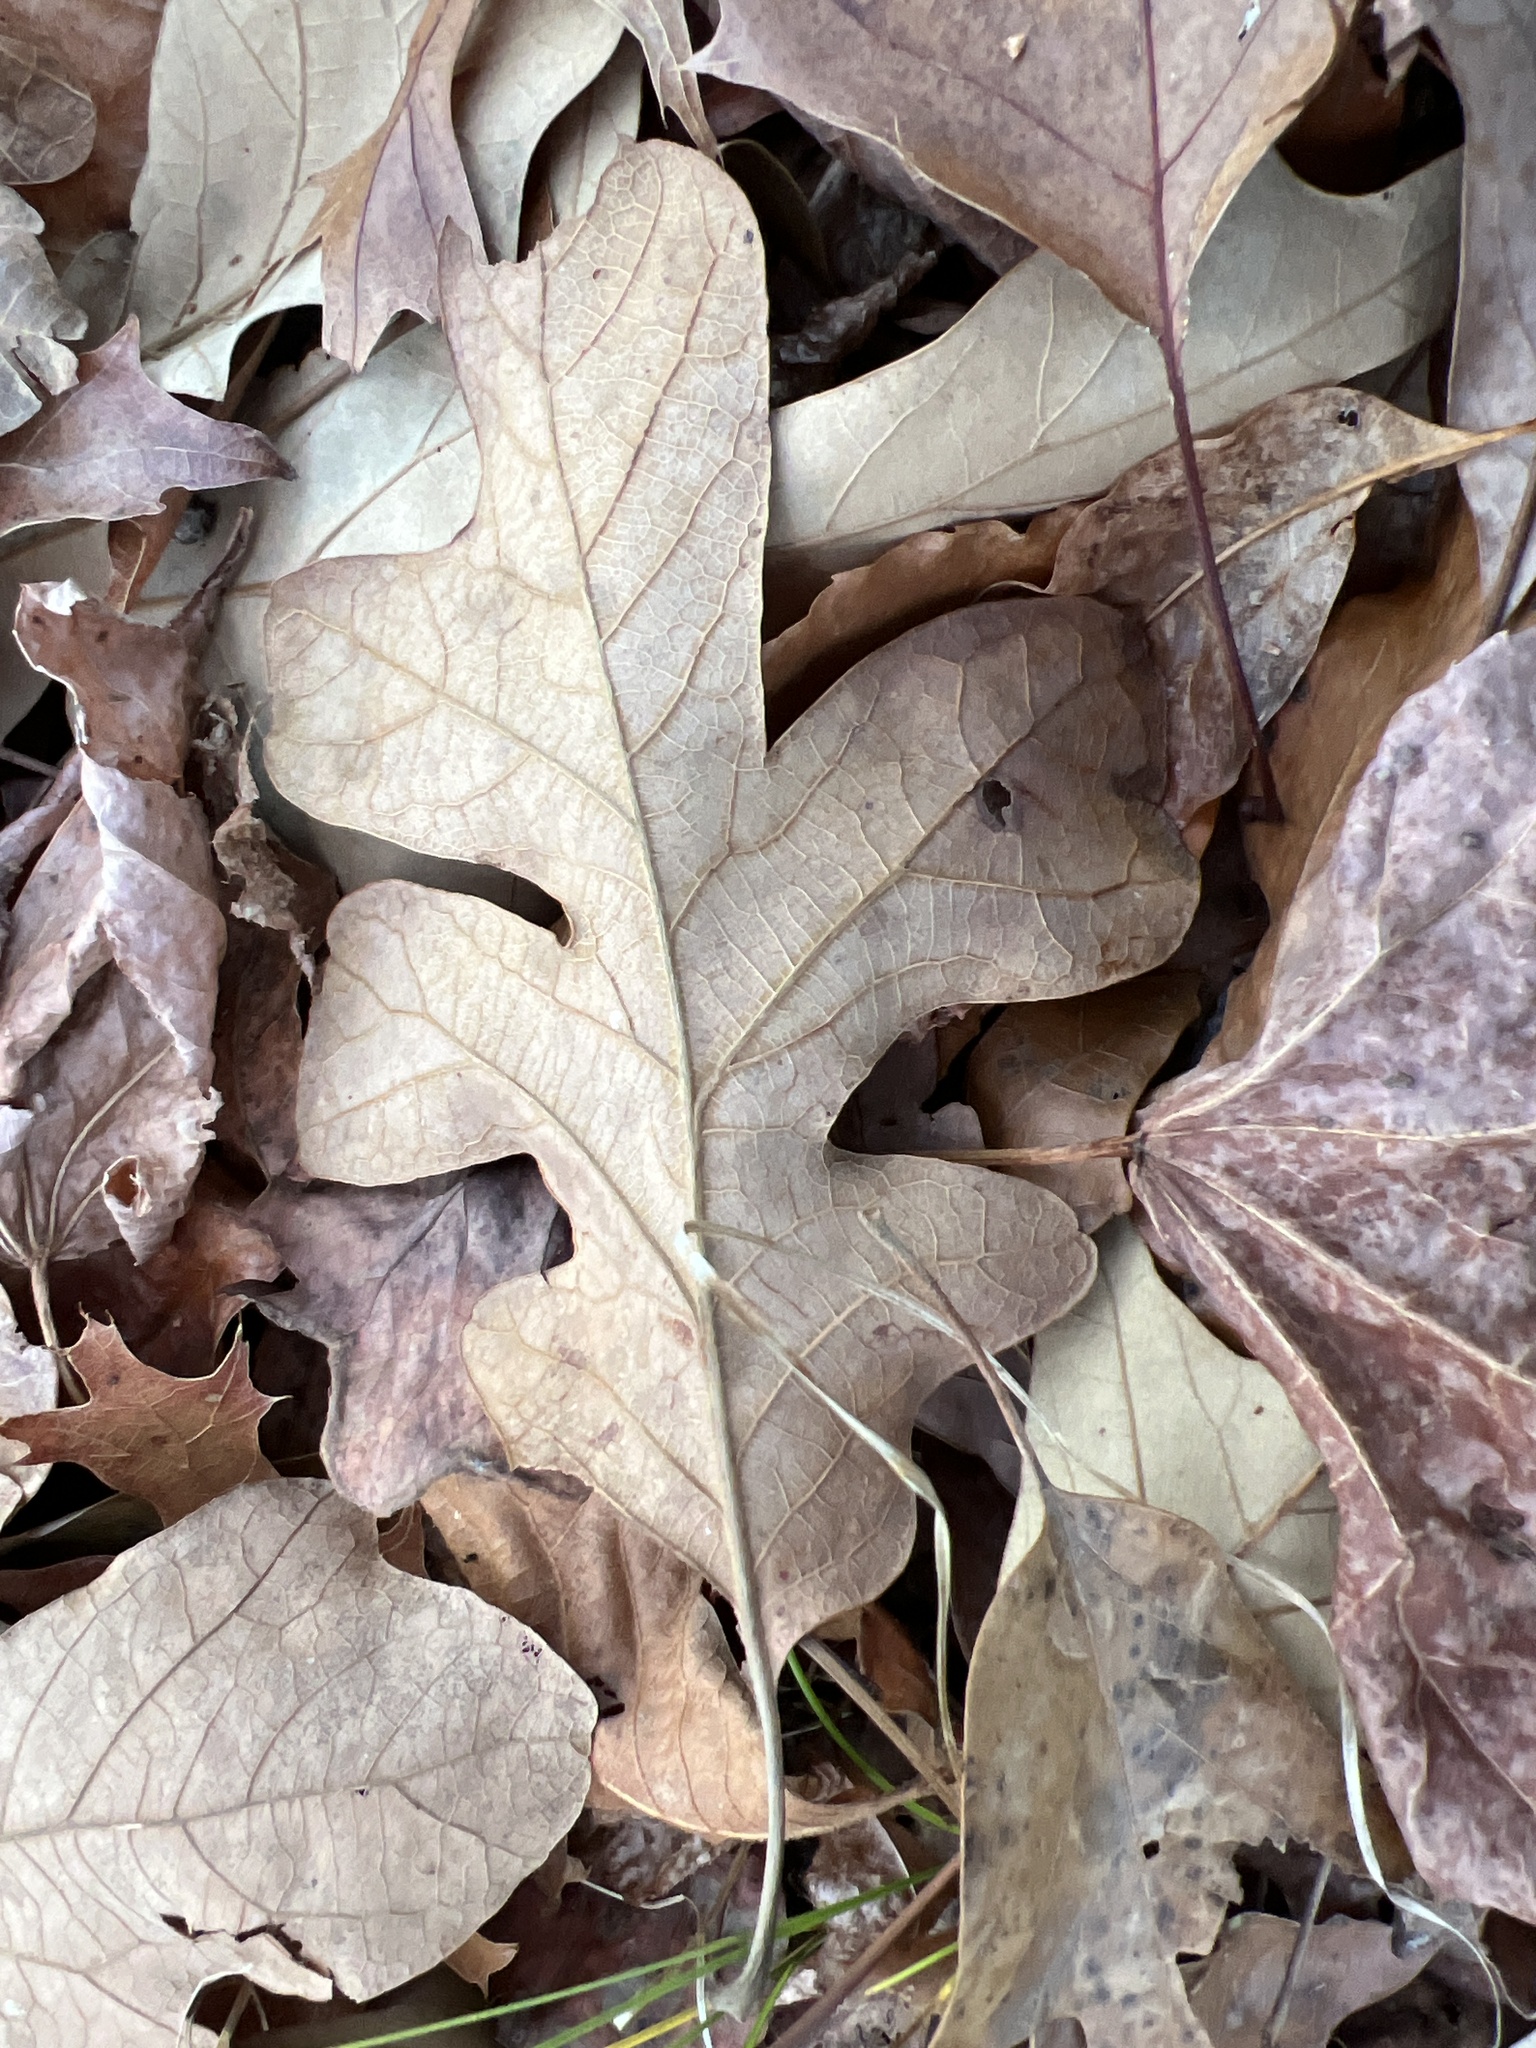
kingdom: Plantae
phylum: Tracheophyta
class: Magnoliopsida
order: Fagales
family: Fagaceae
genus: Quercus
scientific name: Quercus stellata
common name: Post oak
